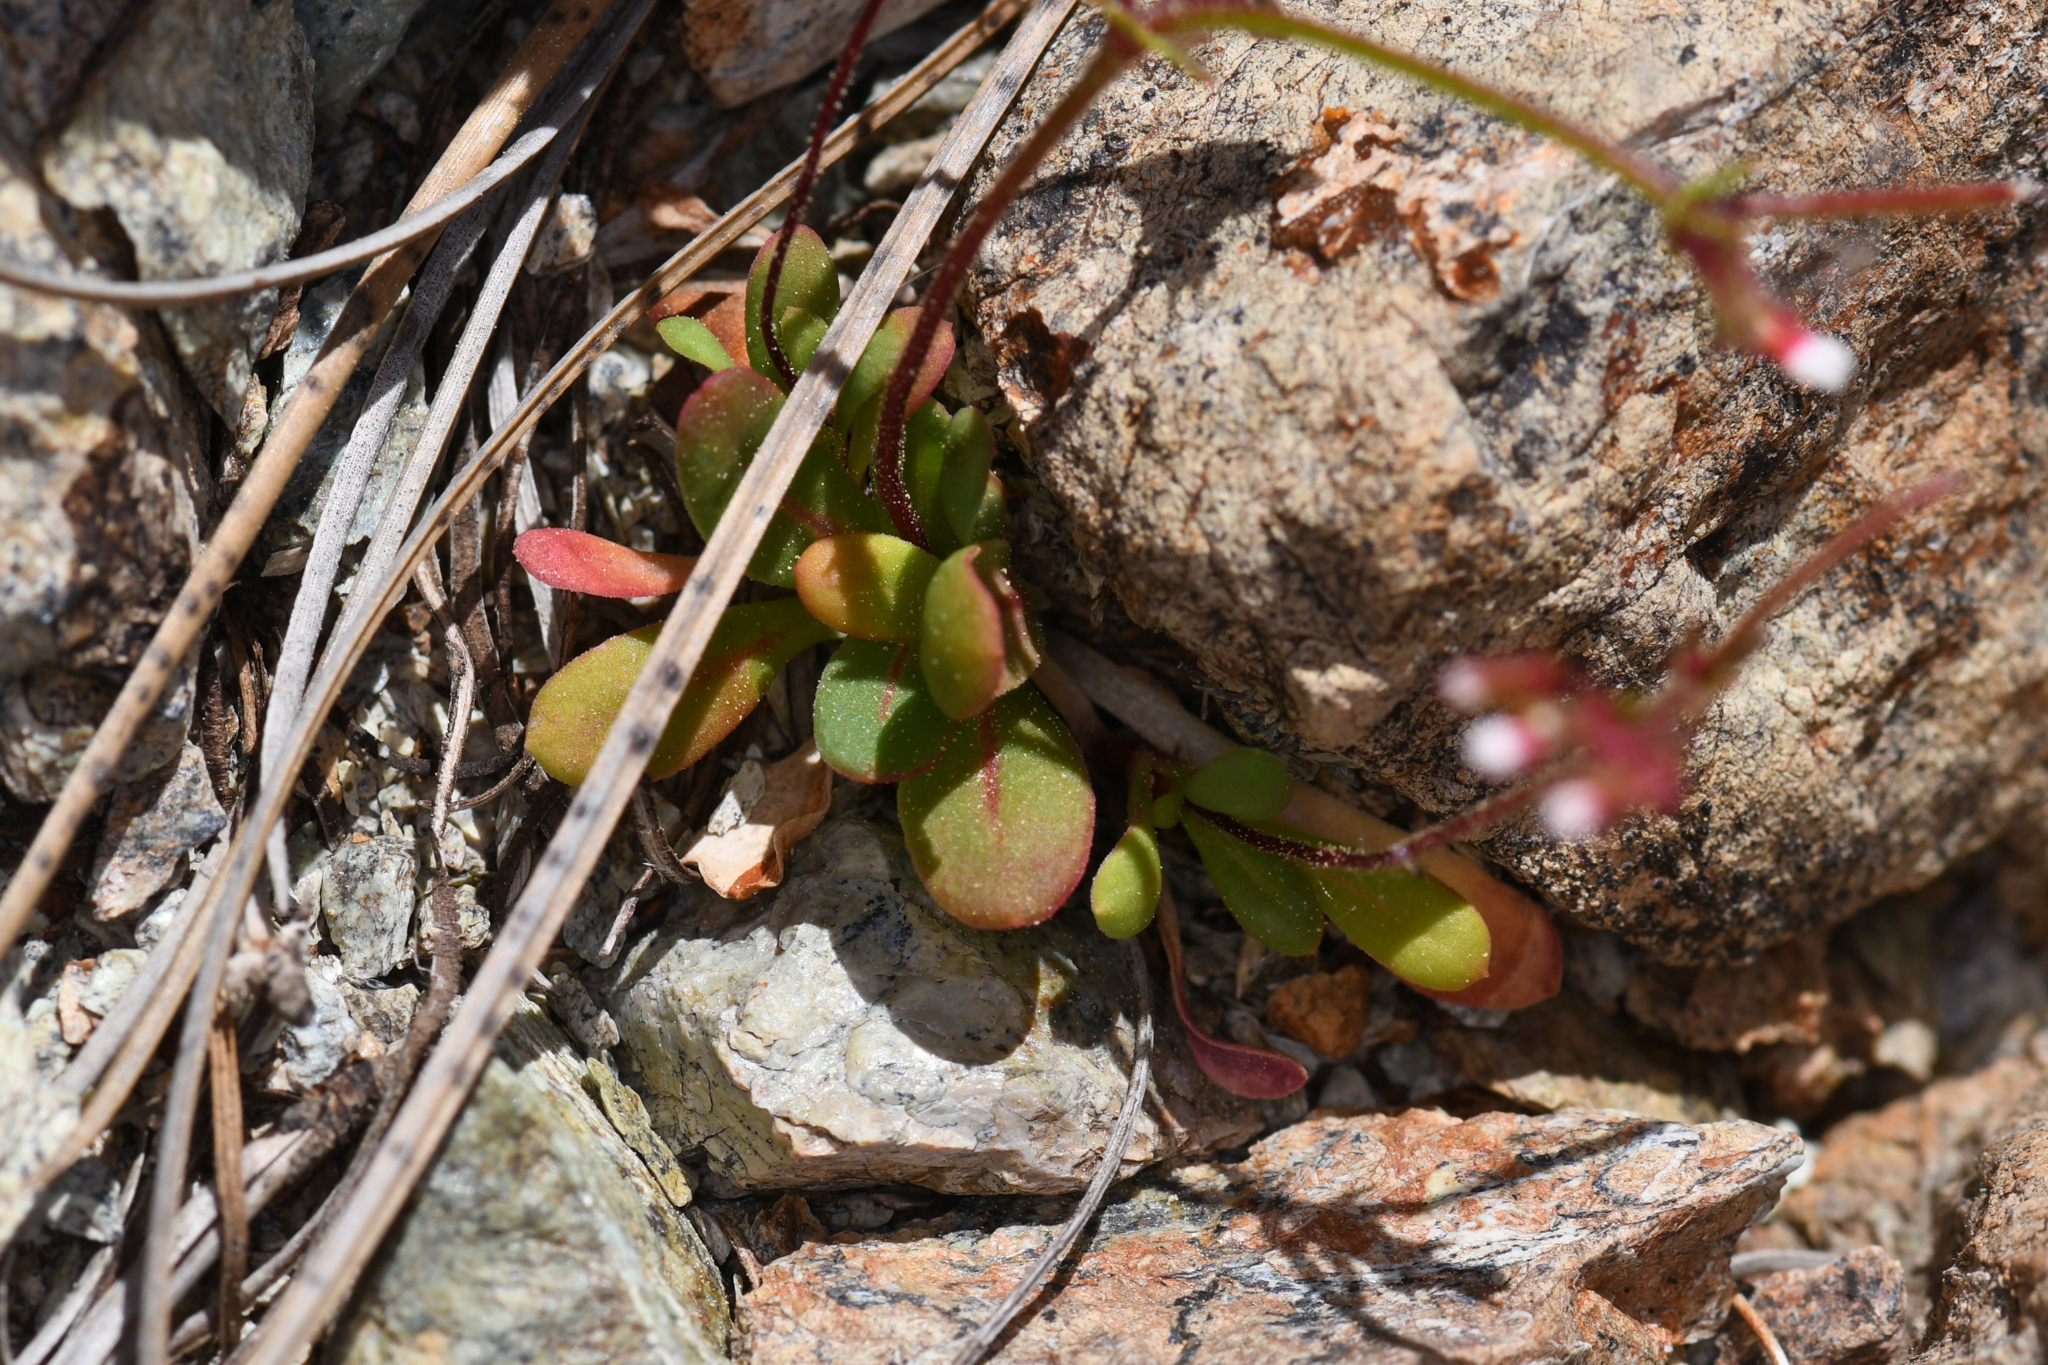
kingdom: Plantae
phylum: Tracheophyta
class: Magnoliopsida
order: Caryophyllales
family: Polygonaceae
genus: Systenotheca
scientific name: Systenotheca vortriedei
